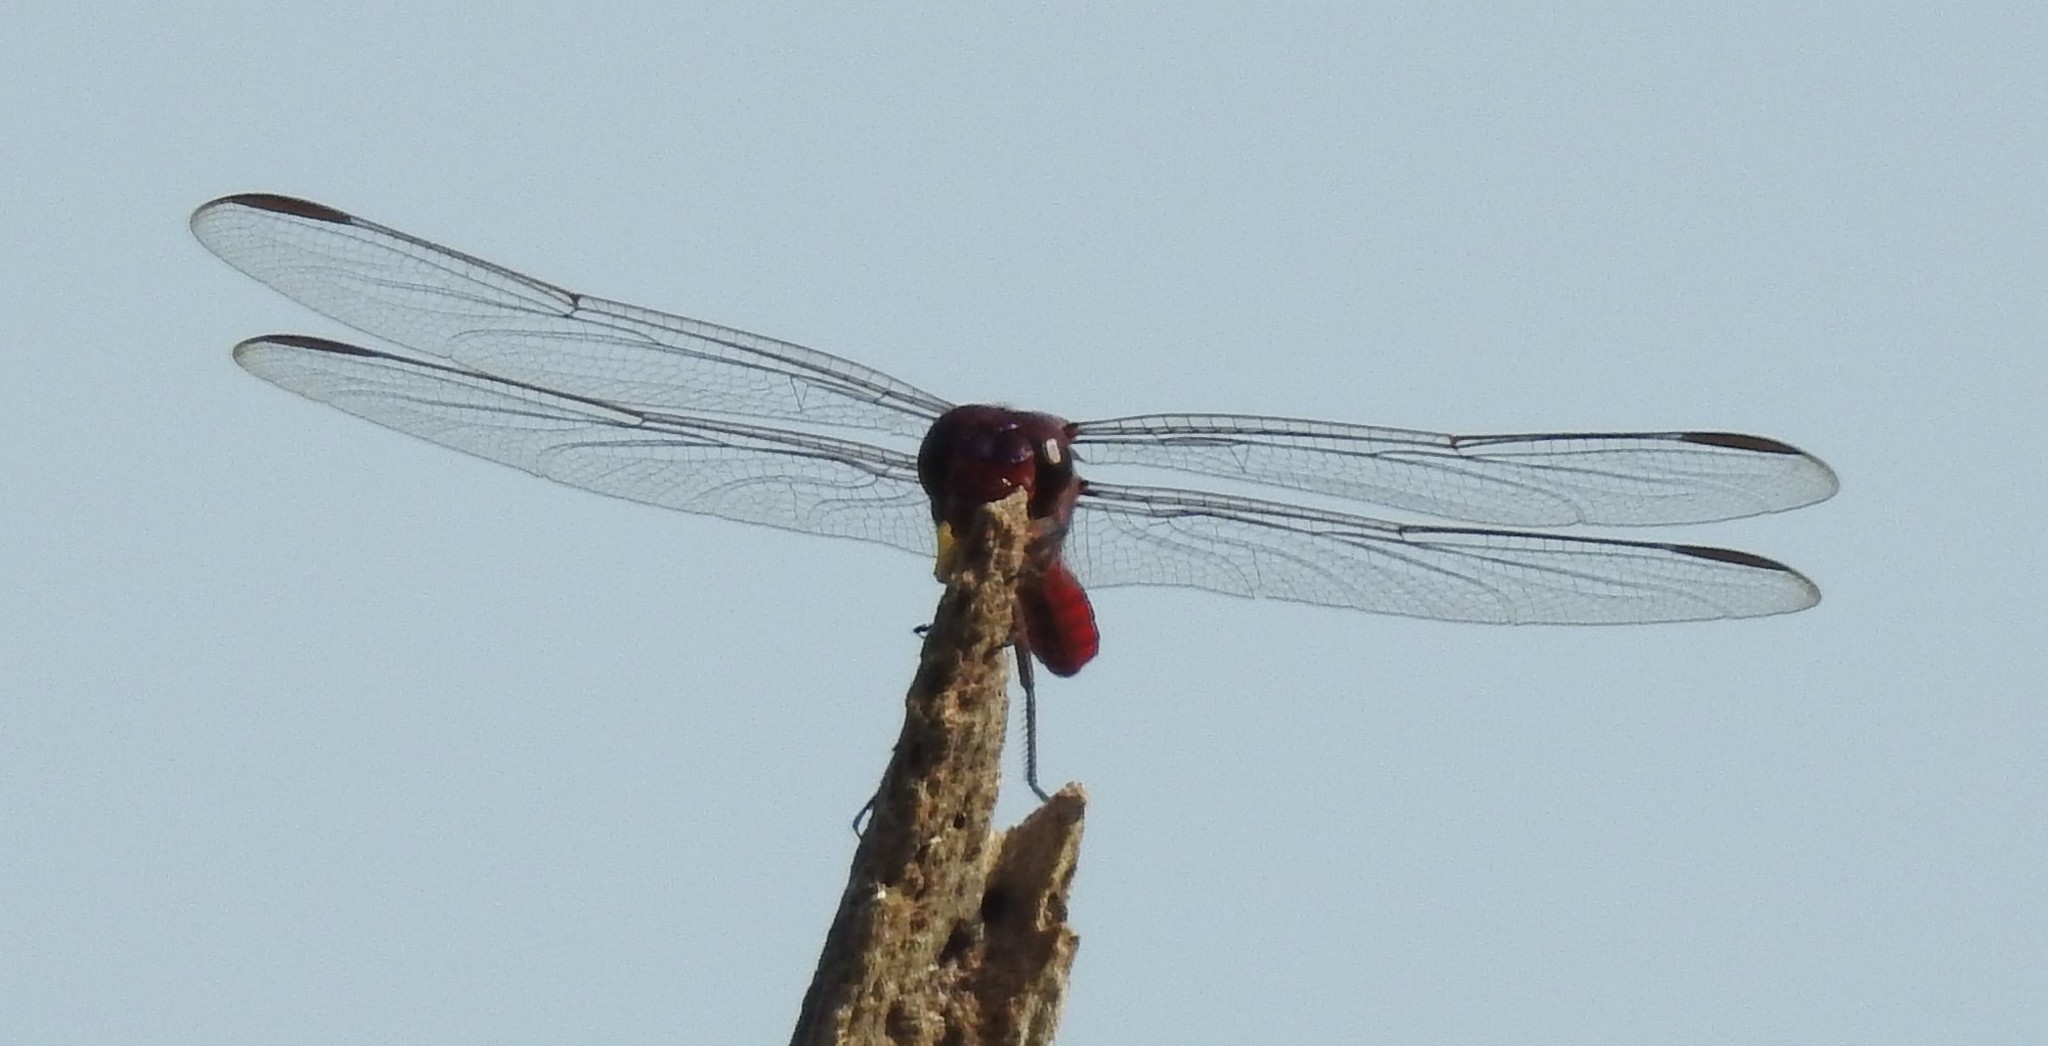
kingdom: Animalia
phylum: Arthropoda
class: Insecta
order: Odonata
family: Libellulidae
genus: Orthemis
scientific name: Orthemis ferruginea
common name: Roseate skimmer
